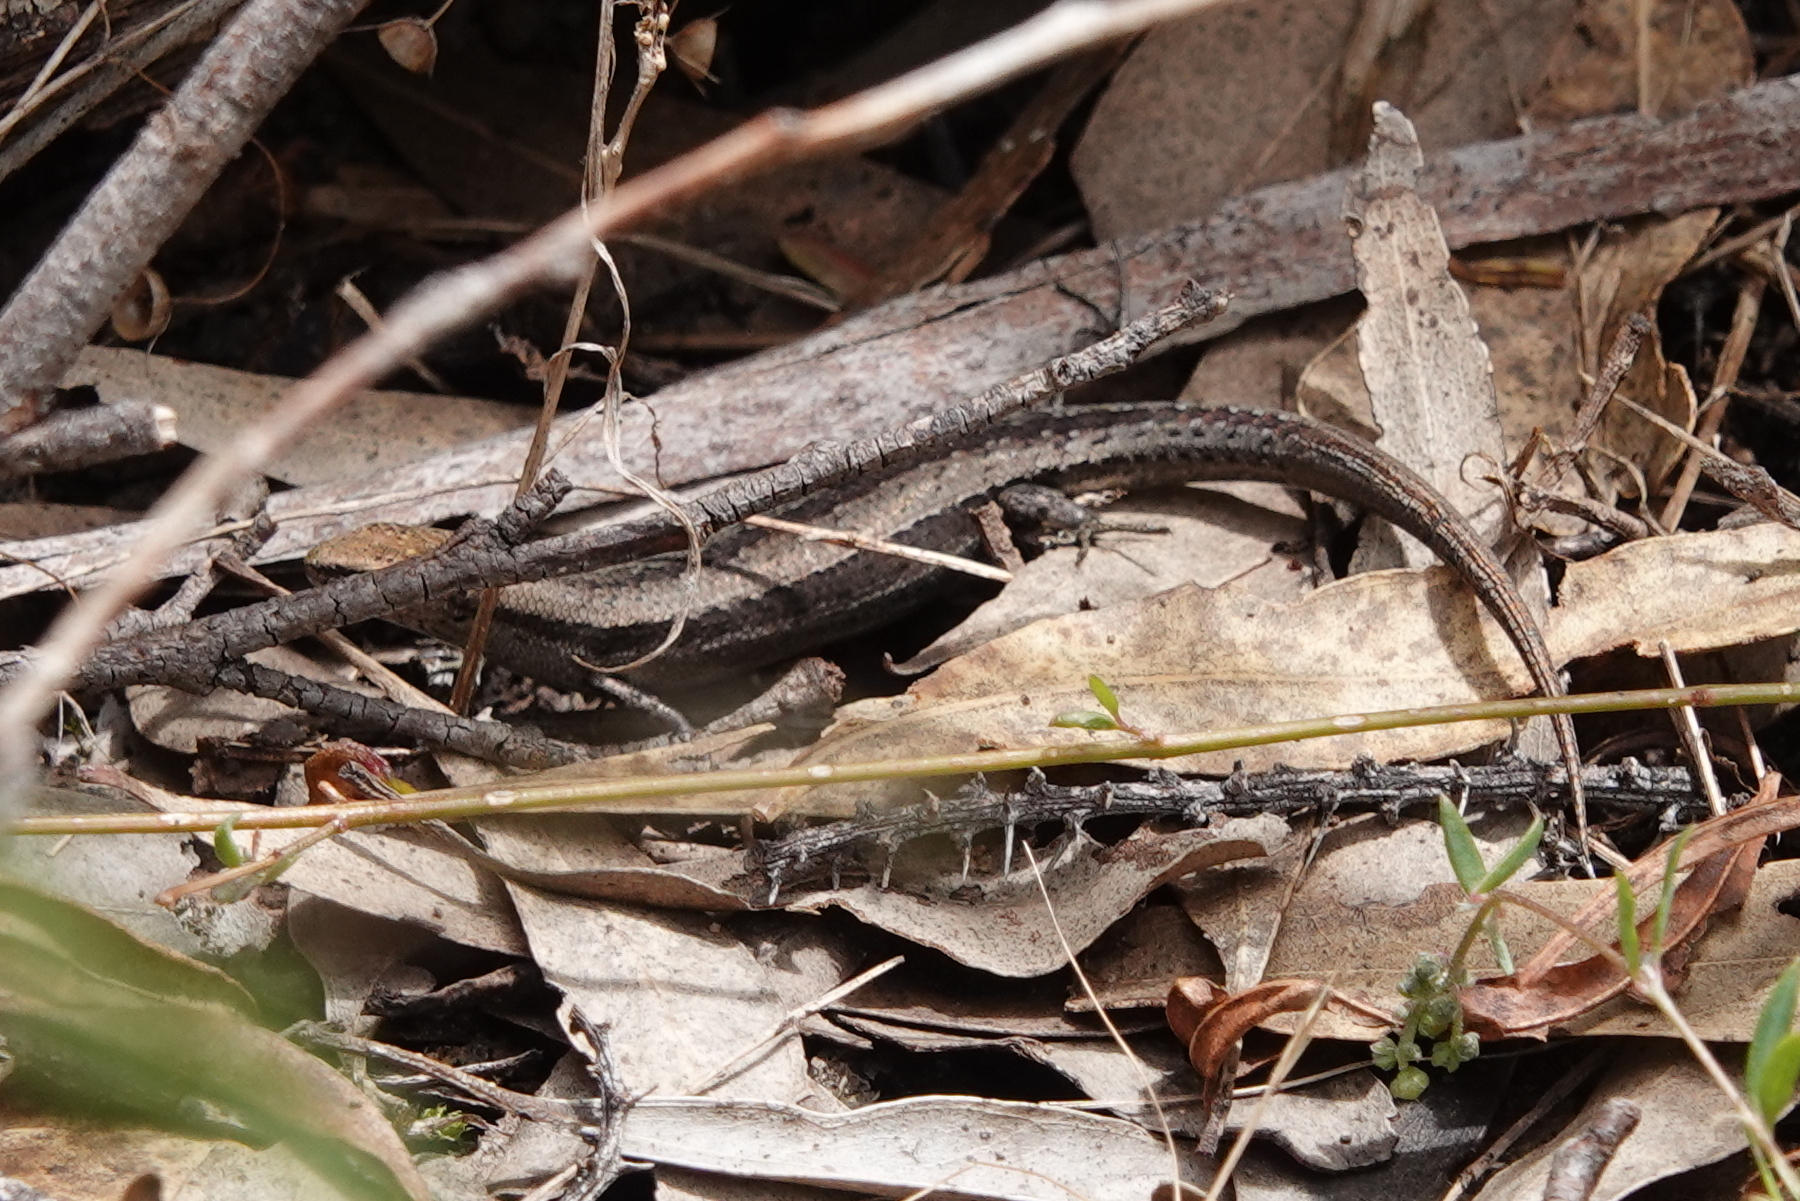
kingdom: Animalia
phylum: Chordata
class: Squamata
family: Scincidae
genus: Lampropholis
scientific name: Lampropholis guichenoti
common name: Garden skink
